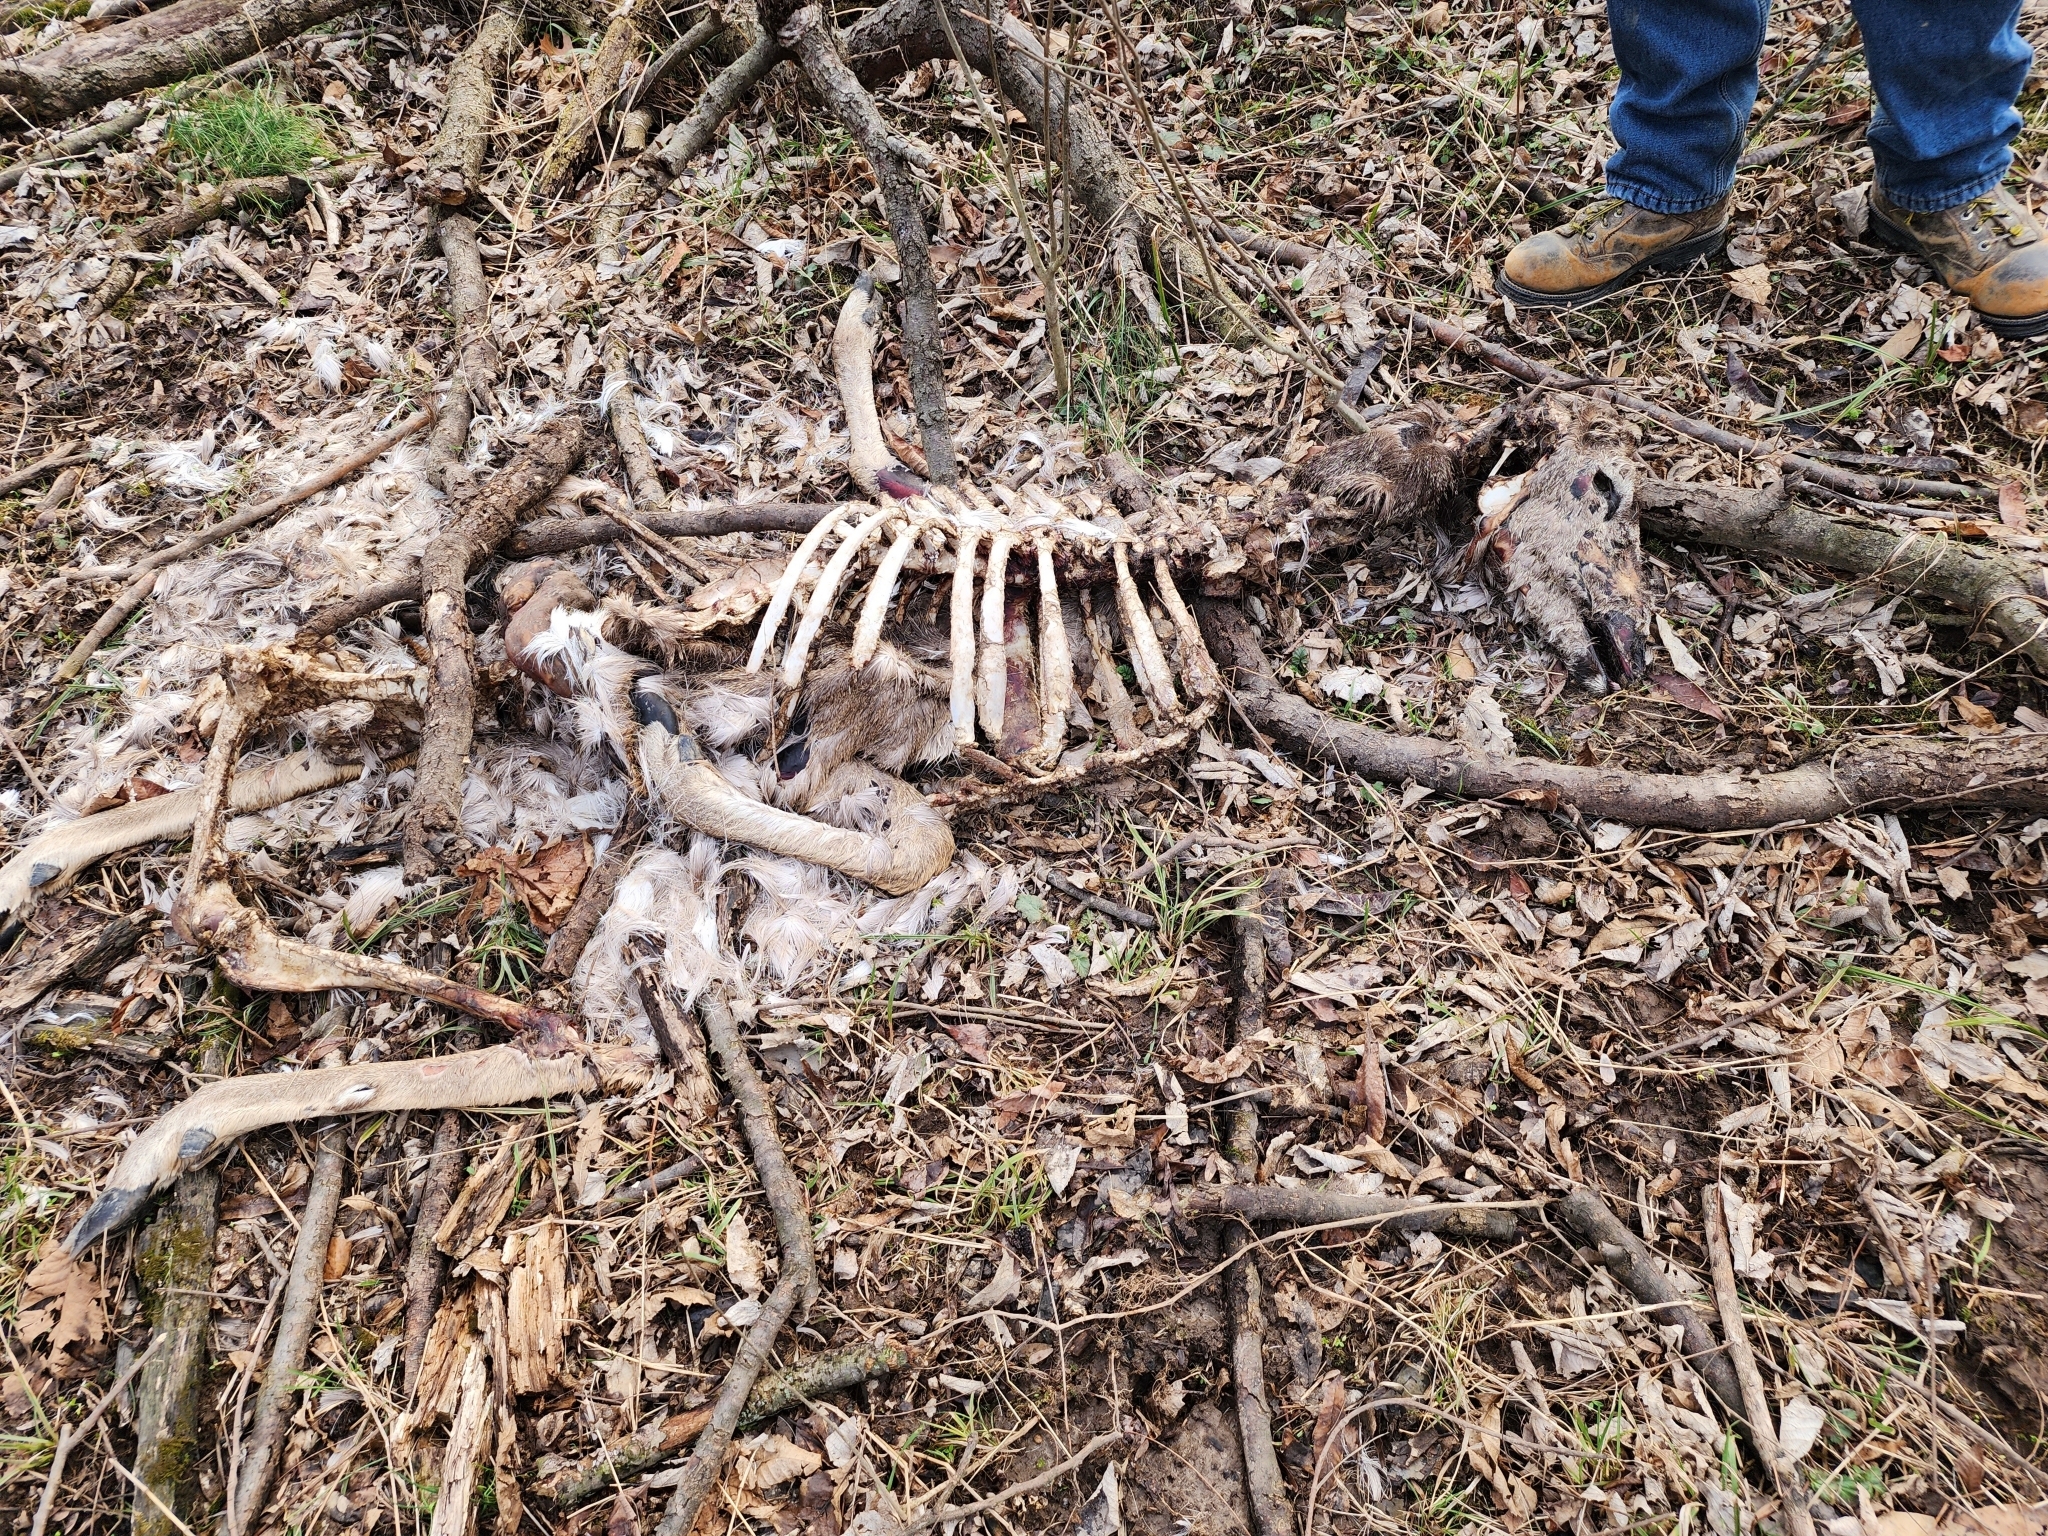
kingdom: Animalia
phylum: Chordata
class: Mammalia
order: Artiodactyla
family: Cervidae
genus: Odocoileus
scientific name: Odocoileus virginianus
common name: White-tailed deer
